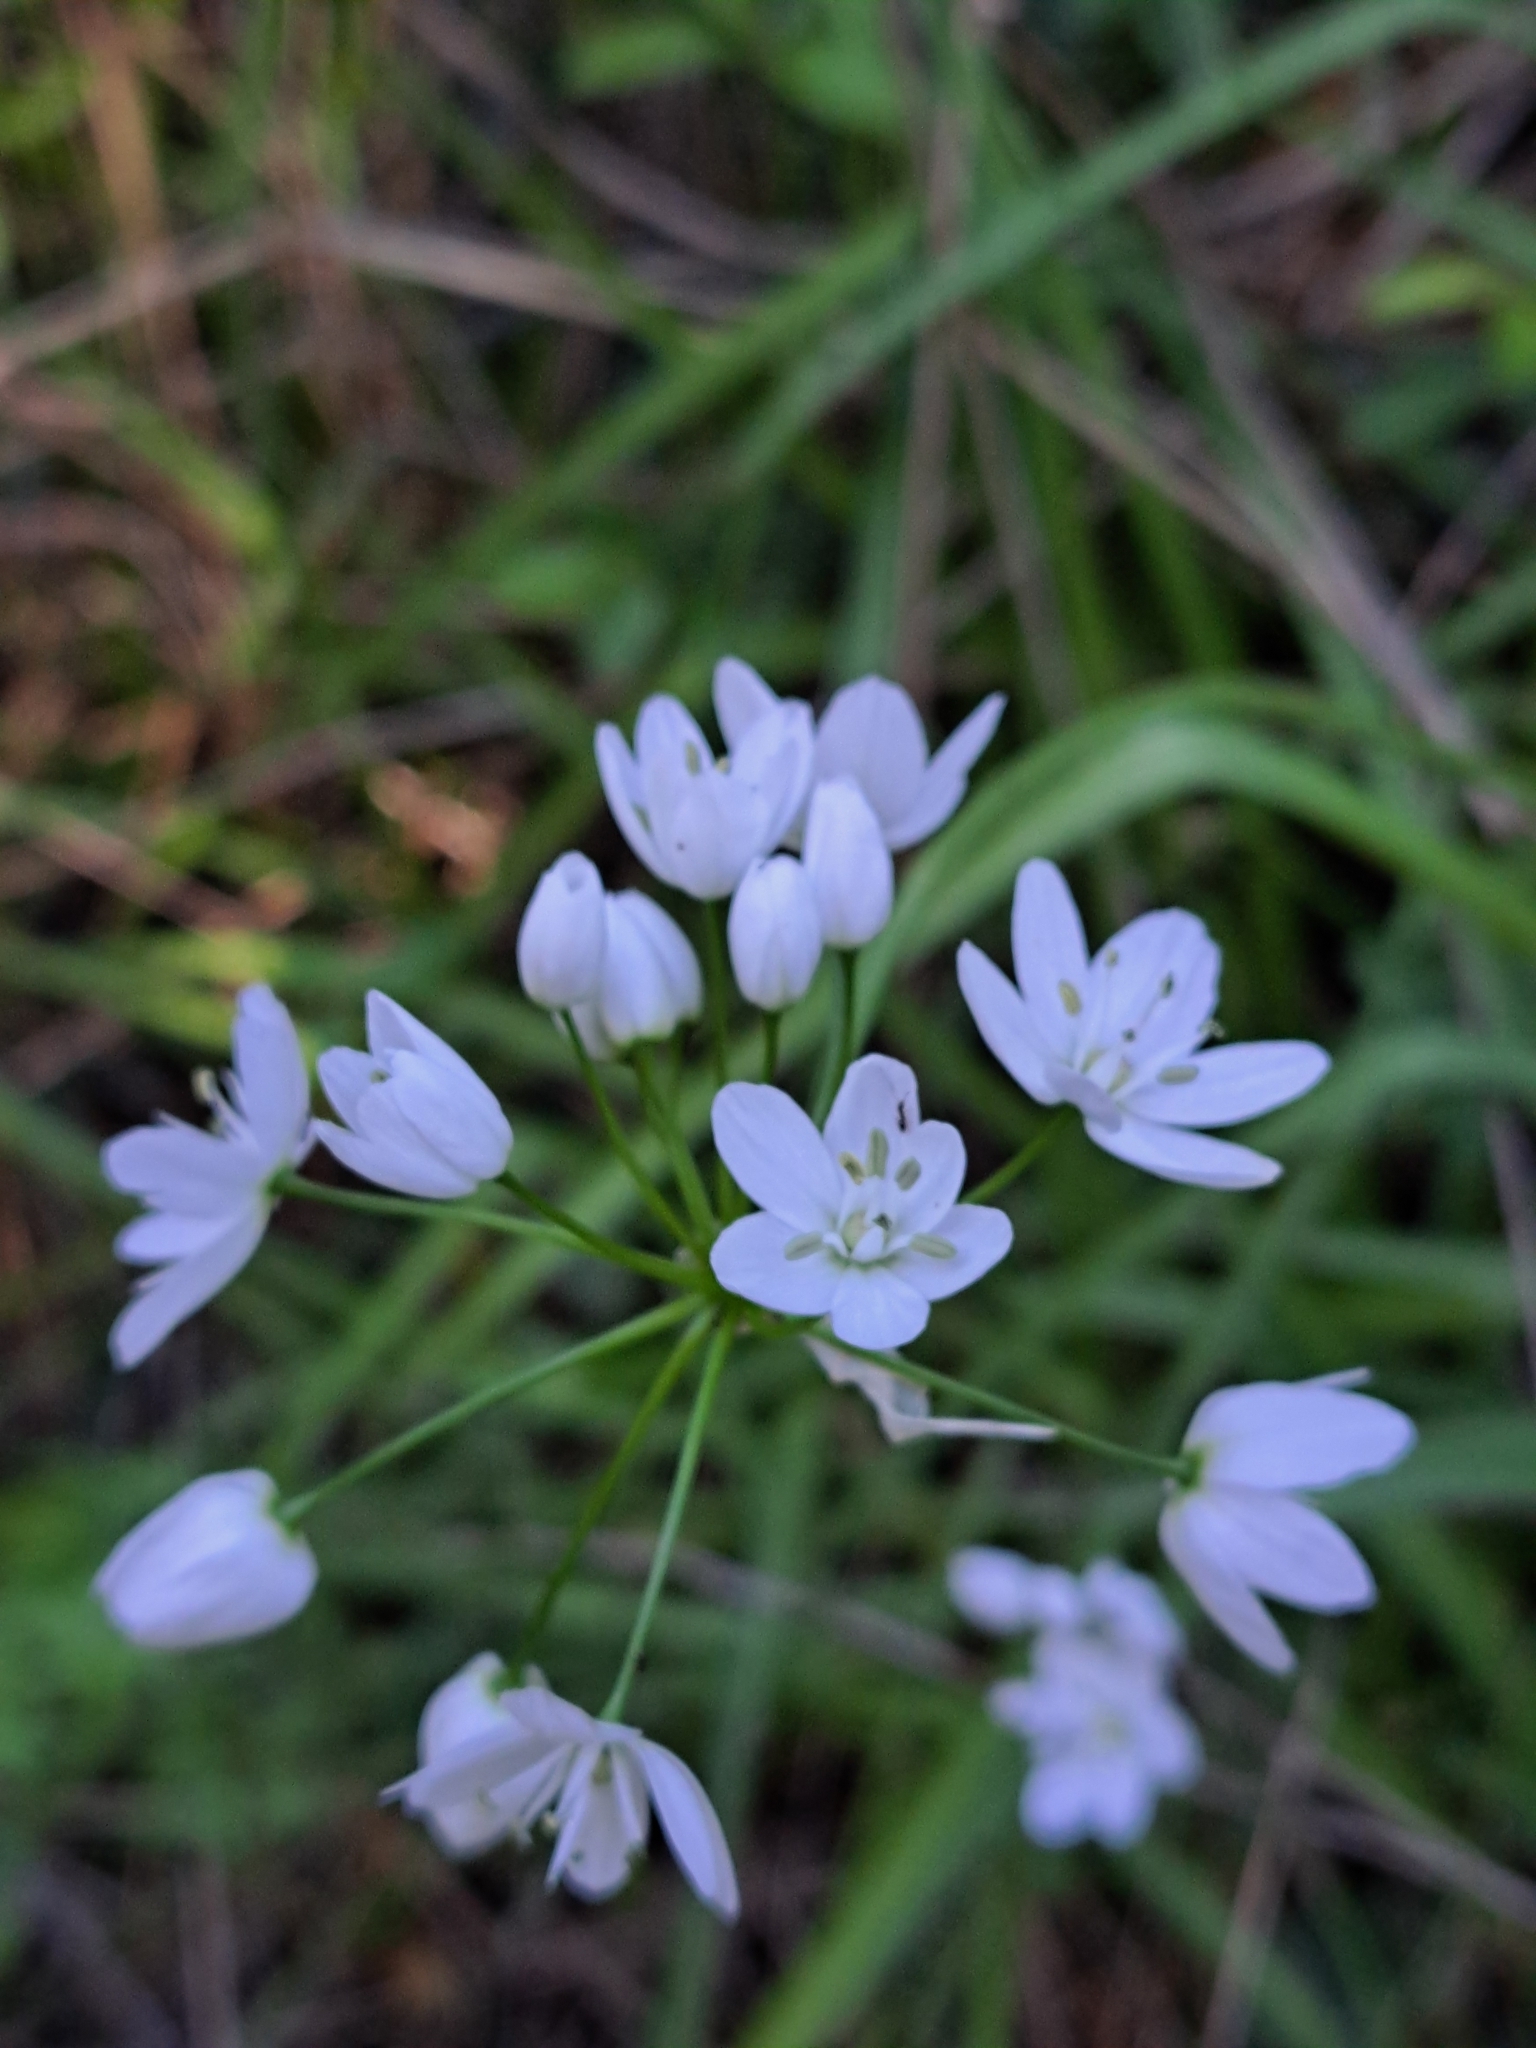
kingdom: Plantae
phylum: Tracheophyta
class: Liliopsida
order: Asparagales
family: Amaryllidaceae
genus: Allium
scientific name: Allium neapolitanum
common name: Neapolitan garlic
